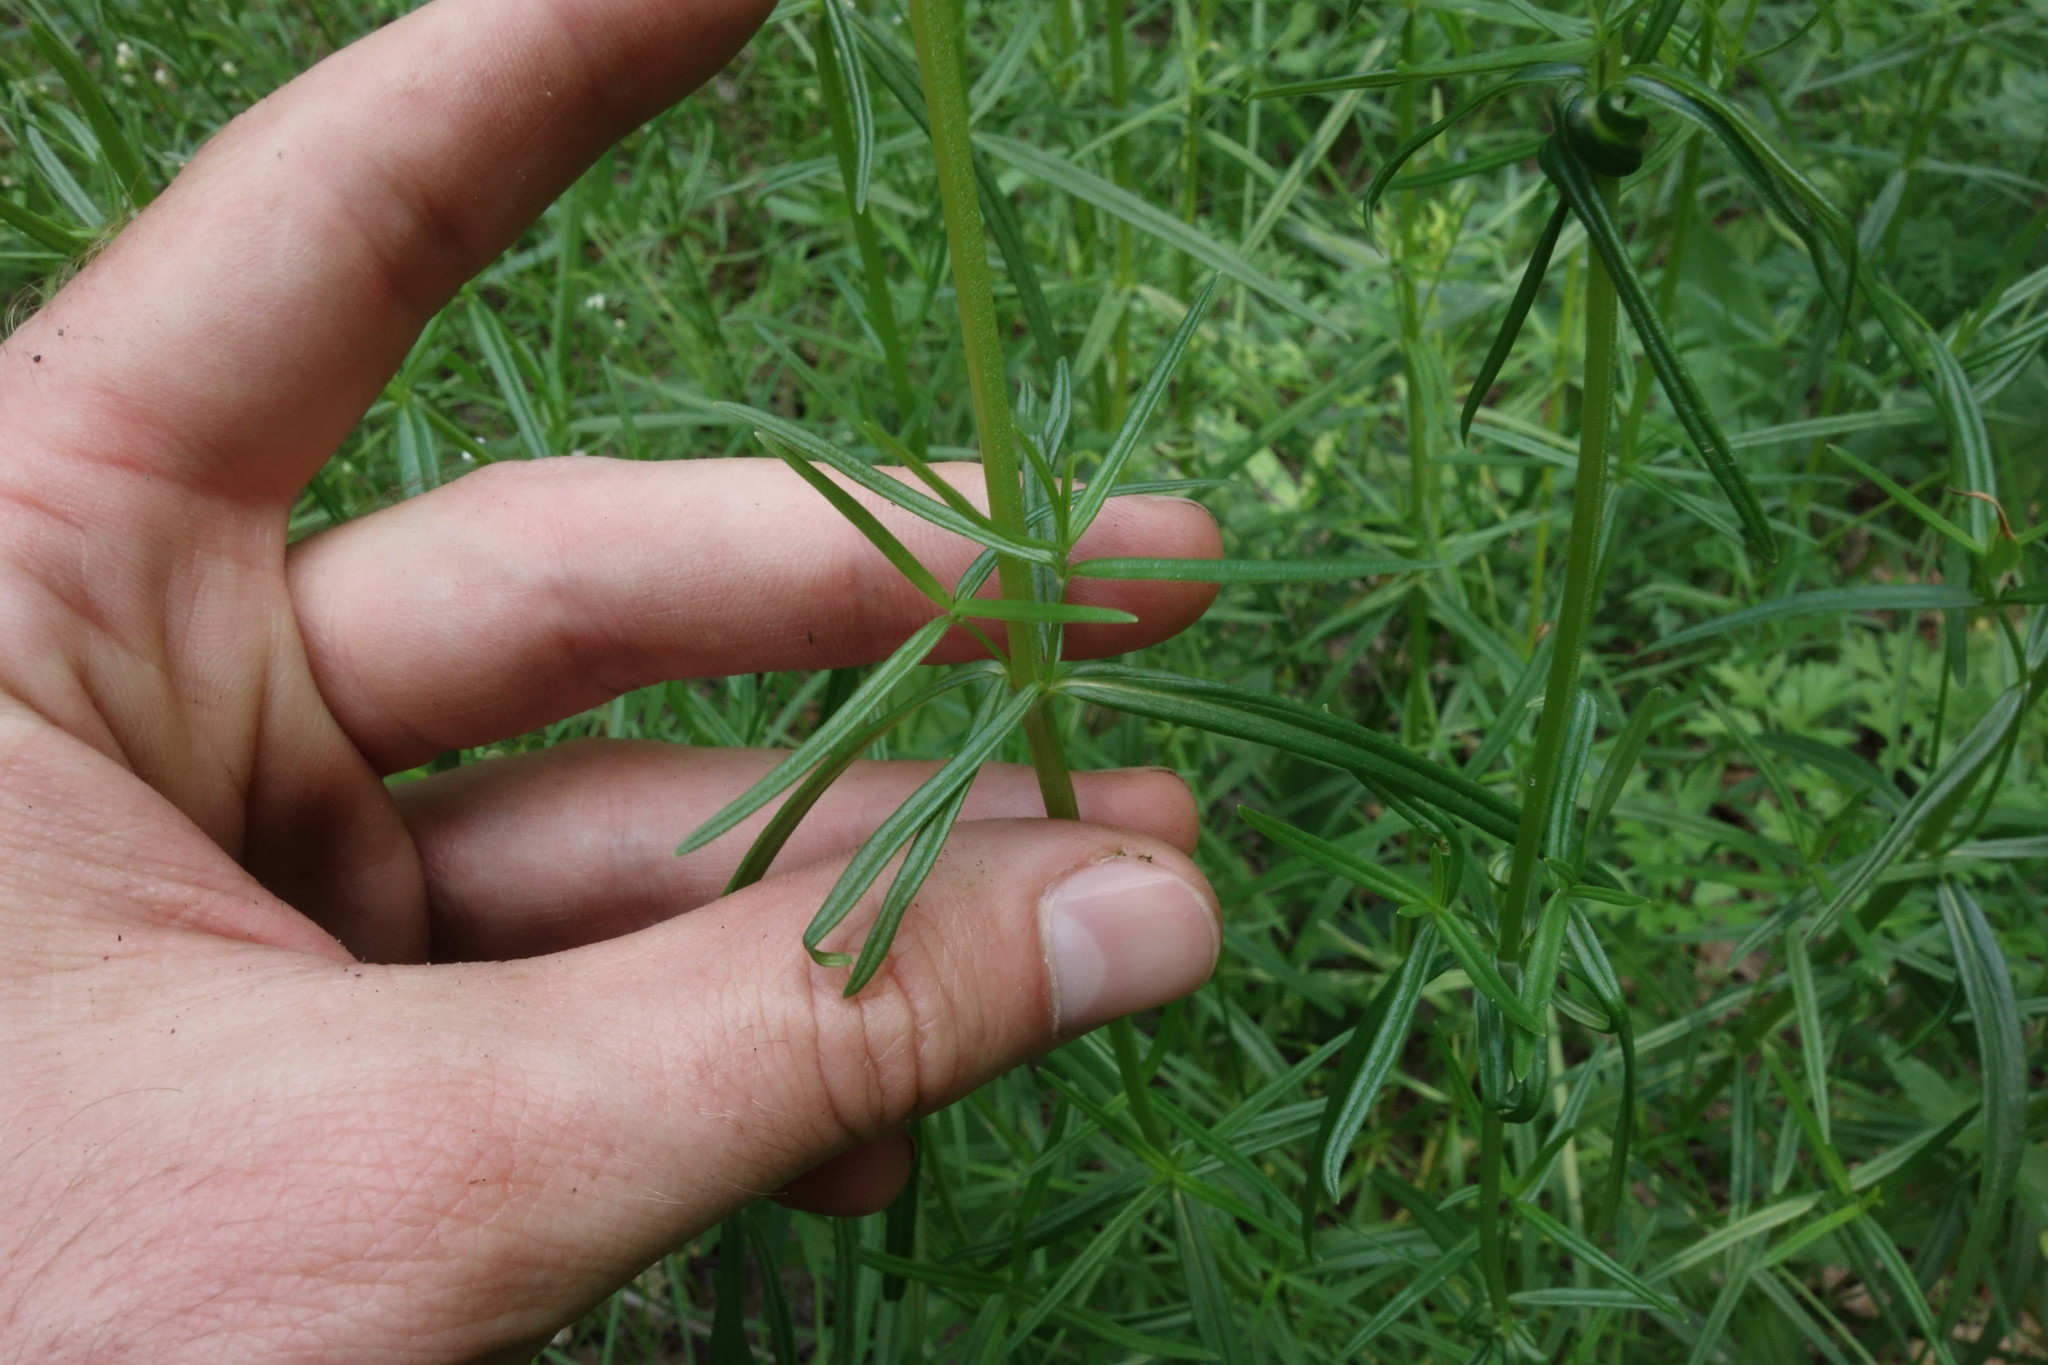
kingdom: Plantae
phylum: Tracheophyta
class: Magnoliopsida
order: Lamiales
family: Lamiaceae
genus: Dracocephalum
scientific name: Dracocephalum ruyschiana
